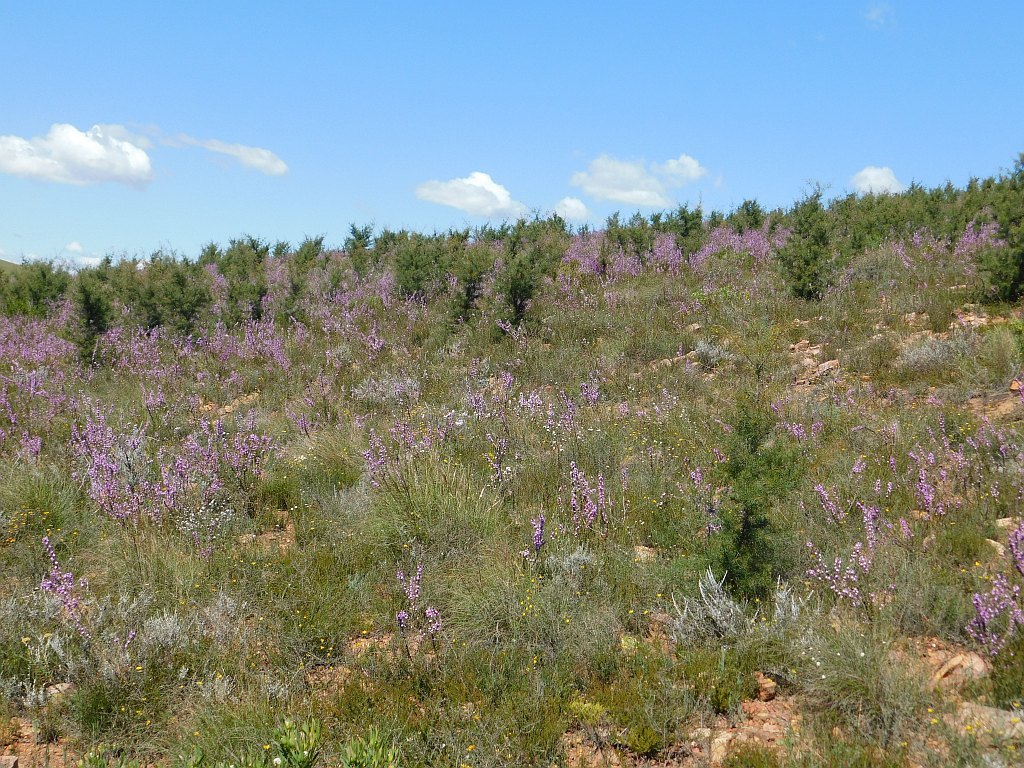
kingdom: Plantae
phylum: Tracheophyta
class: Magnoliopsida
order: Proteales
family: Proteaceae
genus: Hakea
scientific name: Hakea sericea
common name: Needle bush
